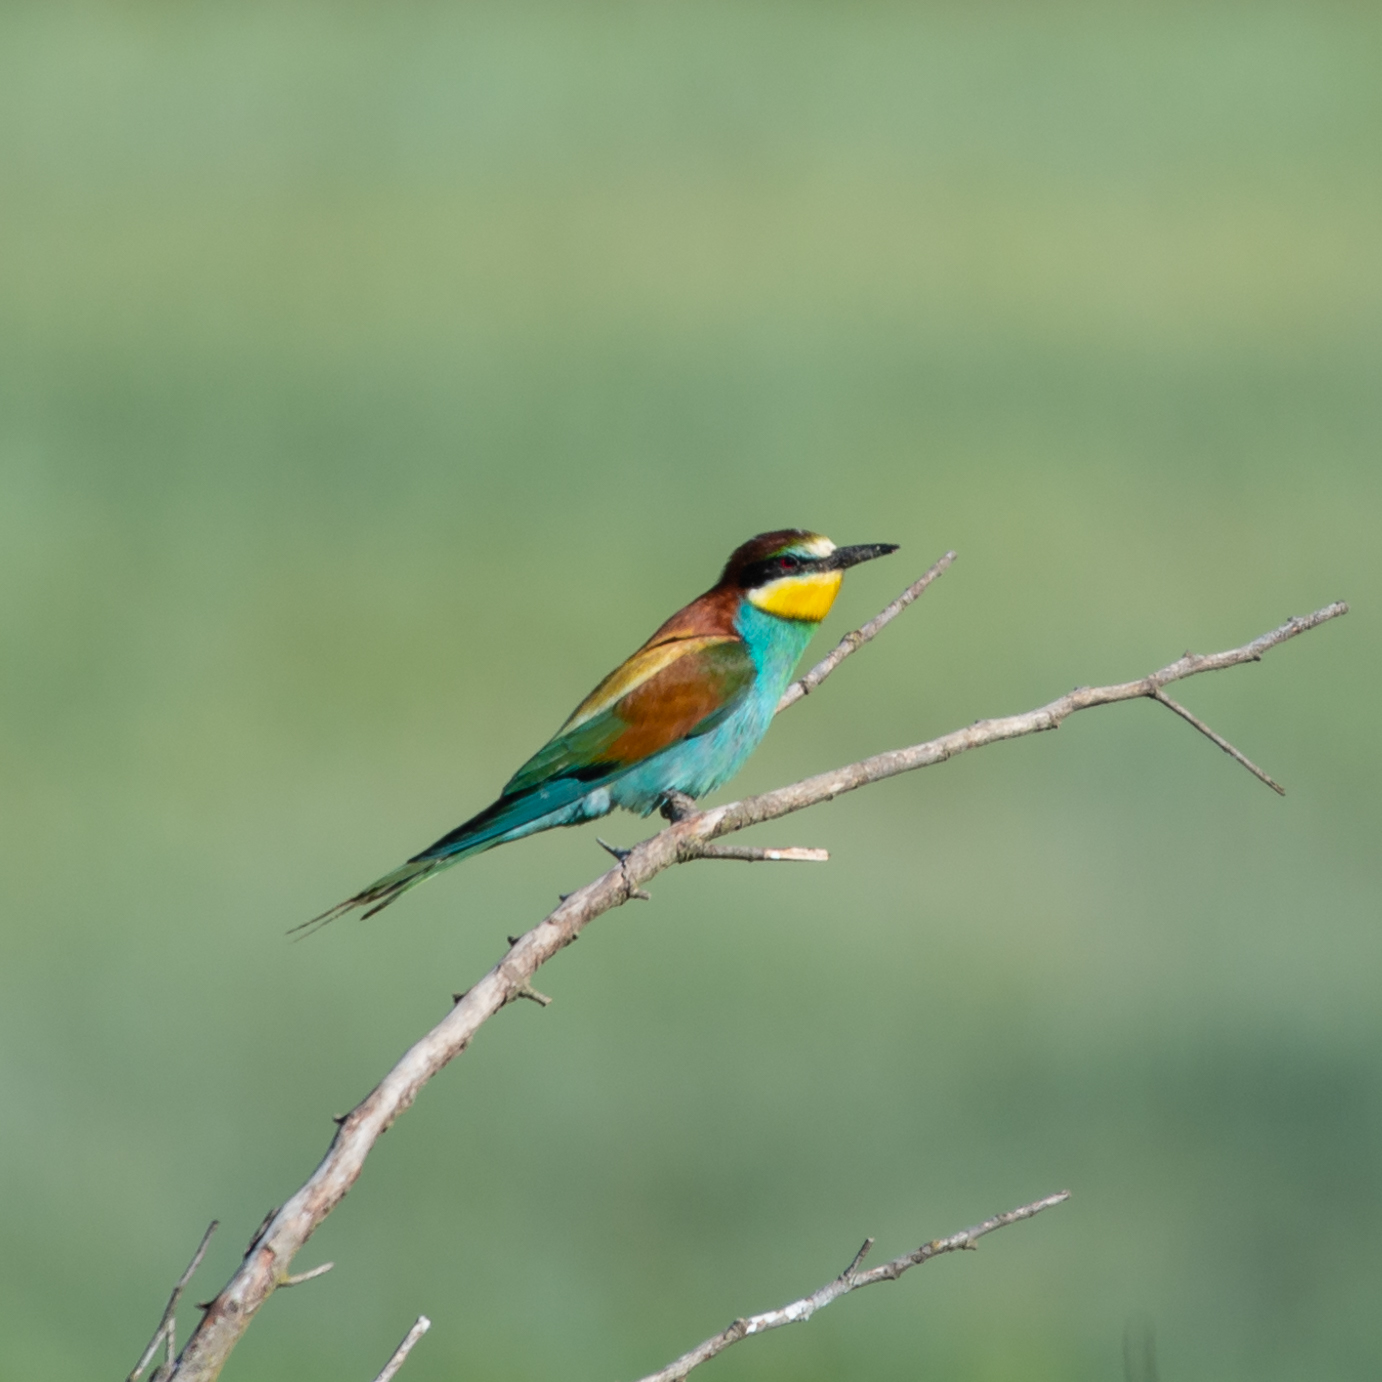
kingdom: Animalia
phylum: Chordata
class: Aves
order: Coraciiformes
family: Meropidae
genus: Merops
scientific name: Merops apiaster
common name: European bee-eater
